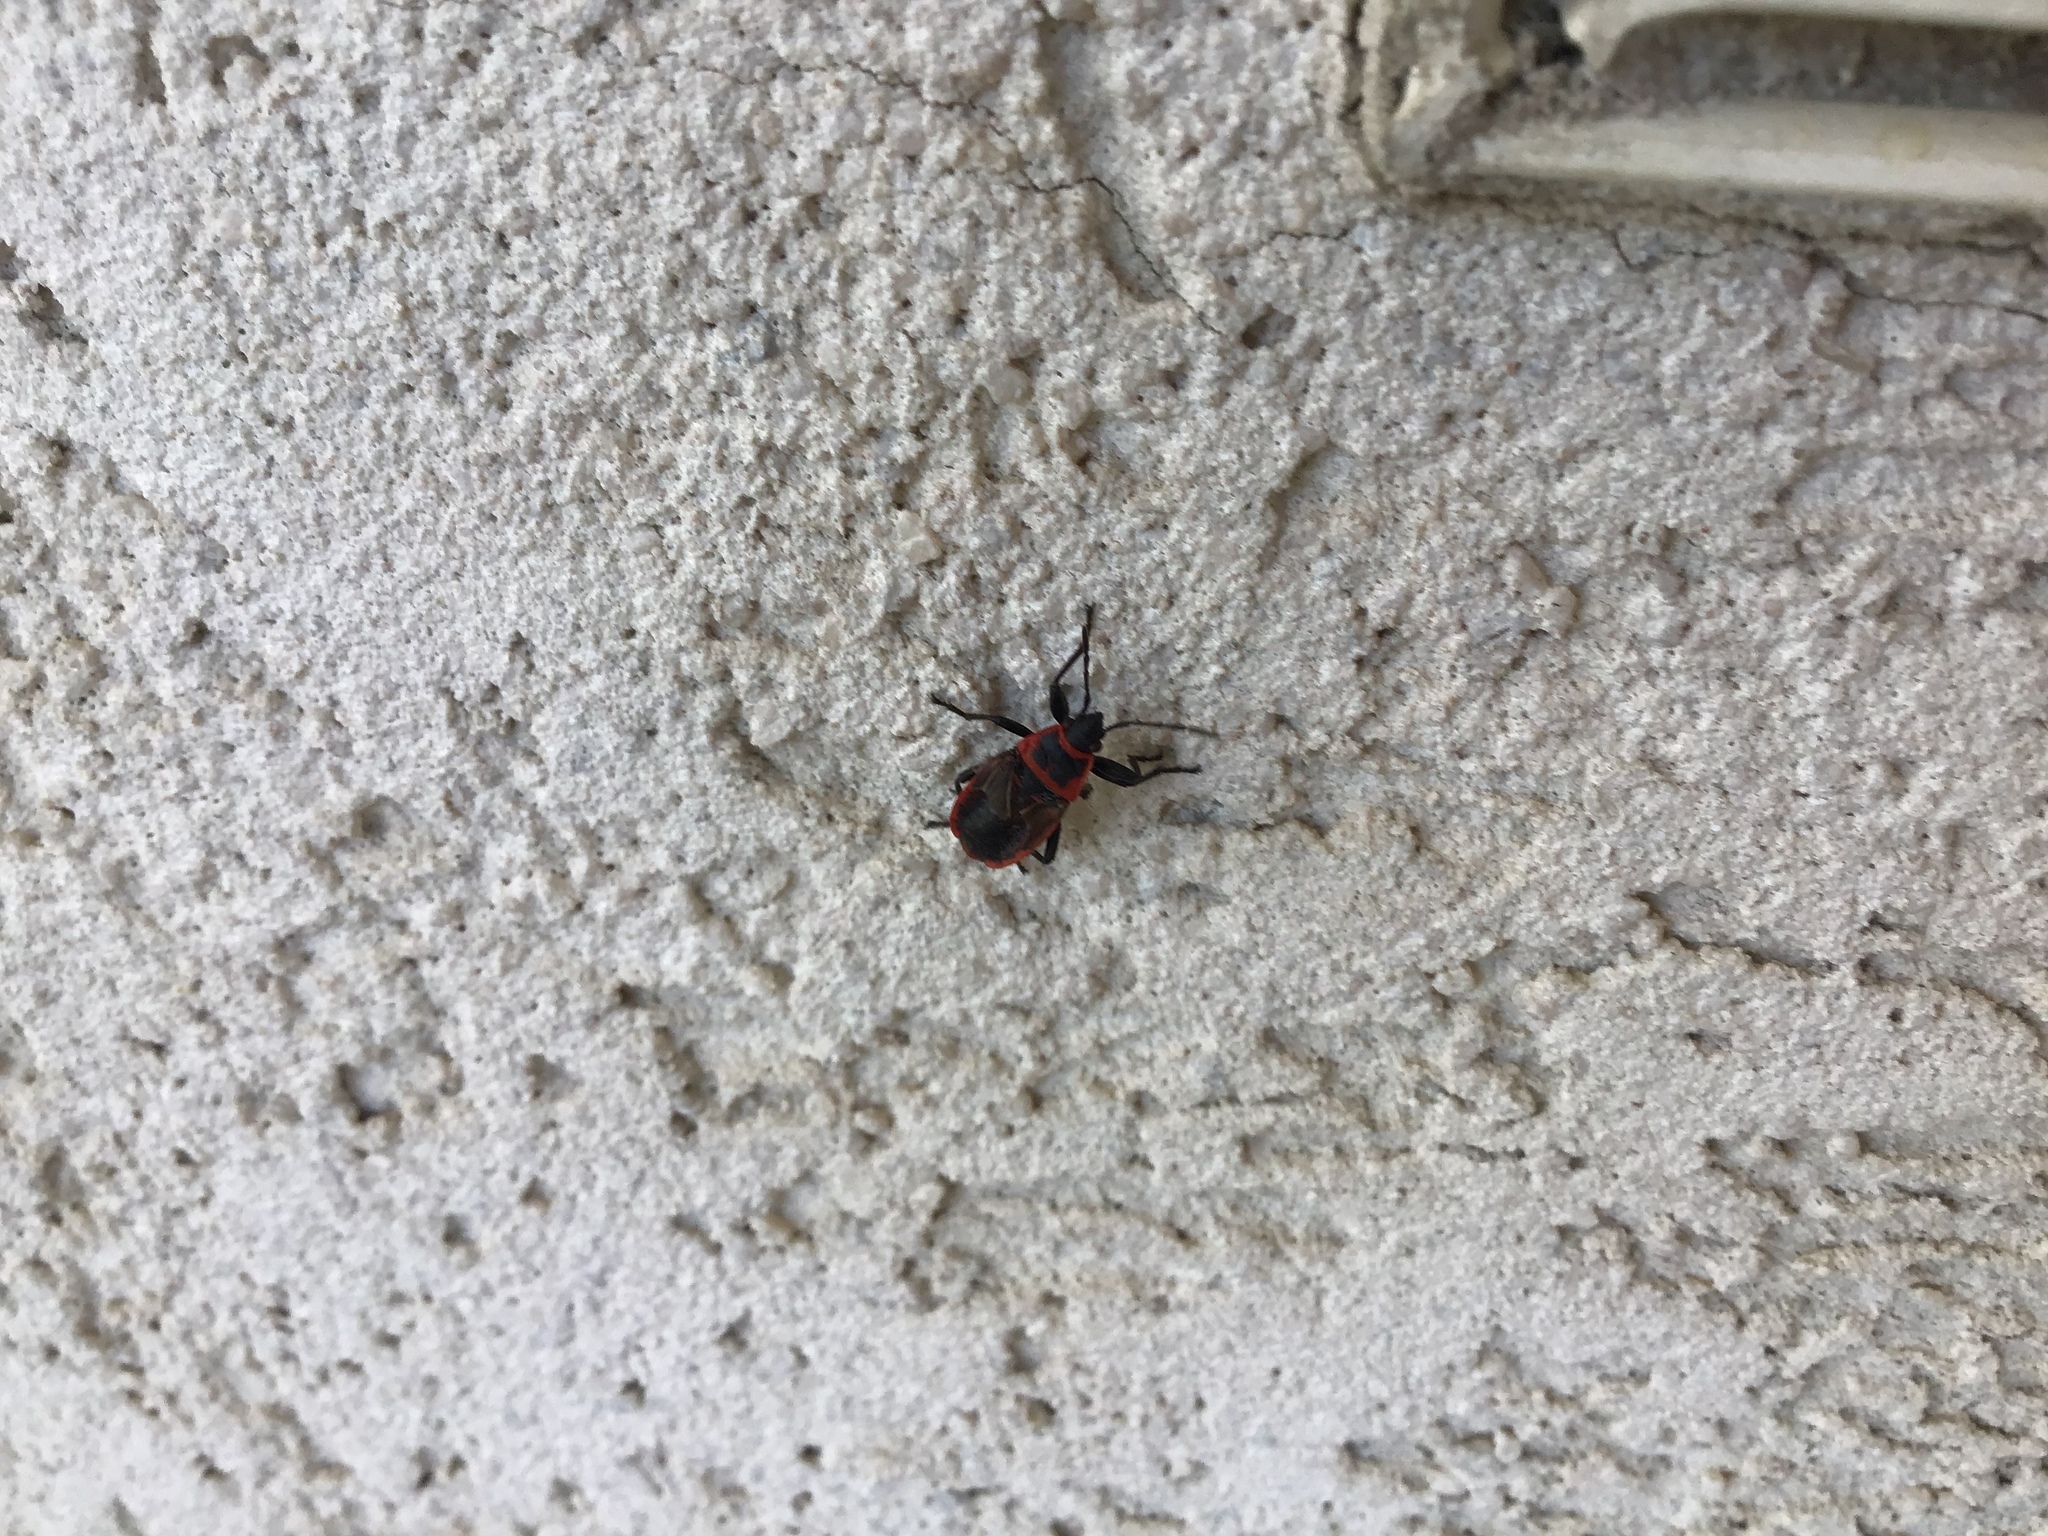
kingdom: Animalia
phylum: Arthropoda
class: Insecta
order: Hemiptera
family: Pyrrhocoridae
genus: Pyrrhocoris
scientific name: Pyrrhocoris apterus
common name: Firebug
